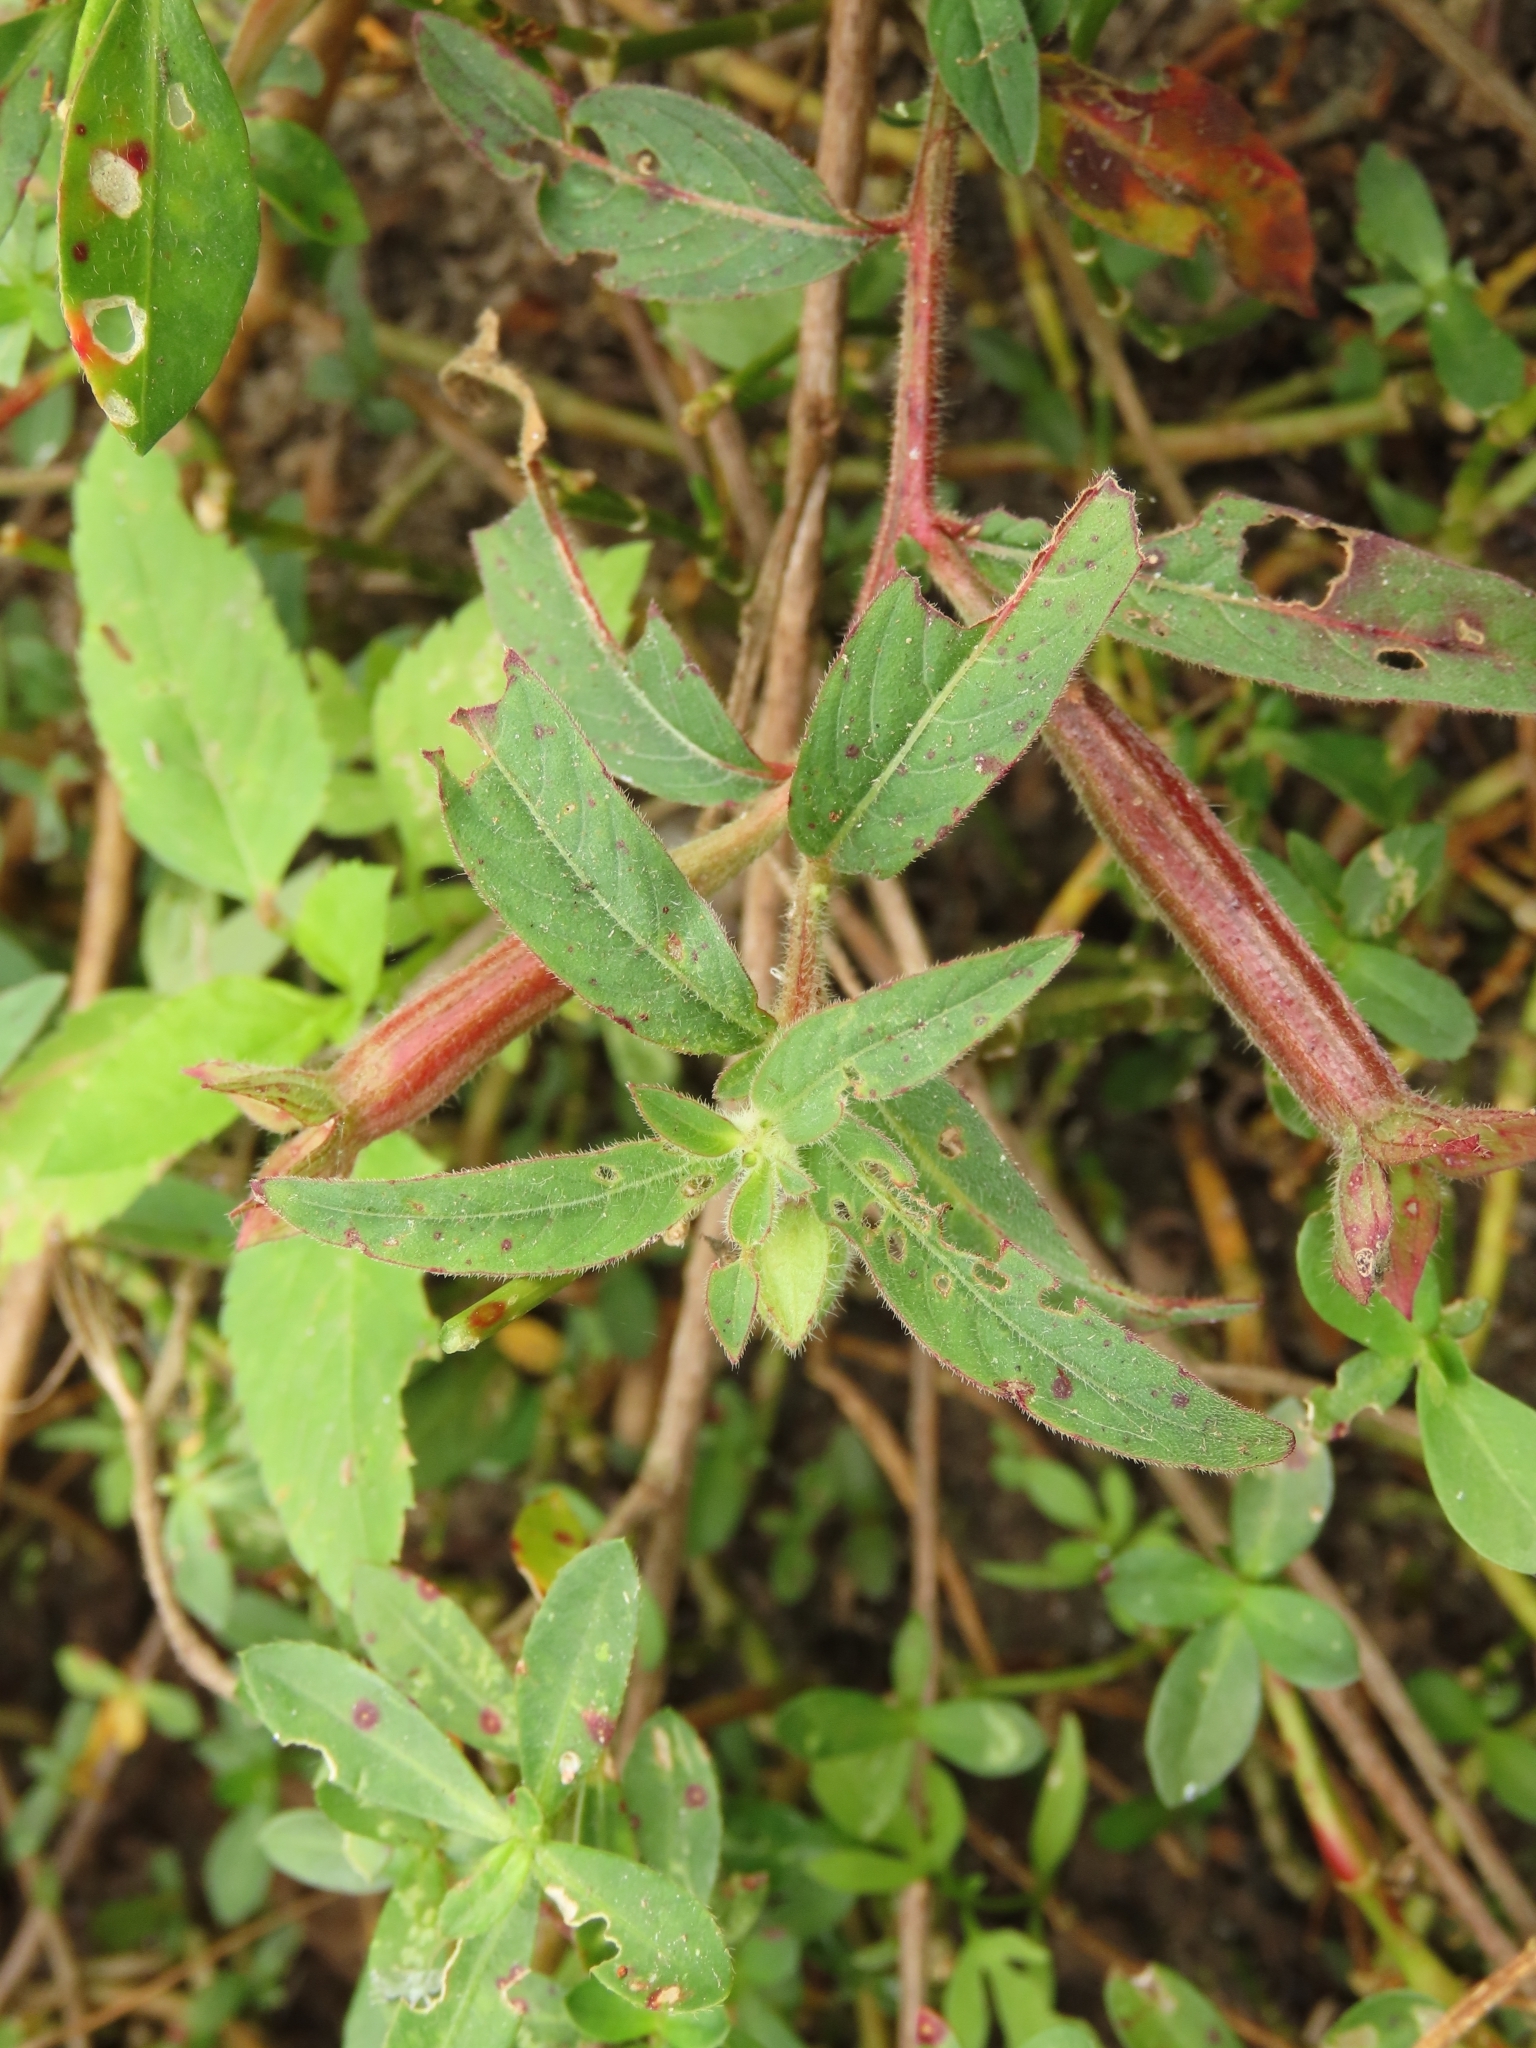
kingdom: Plantae
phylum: Tracheophyta
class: Magnoliopsida
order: Myrtales
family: Onagraceae
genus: Ludwigia
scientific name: Ludwigia octovalvis
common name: Water-primrose
